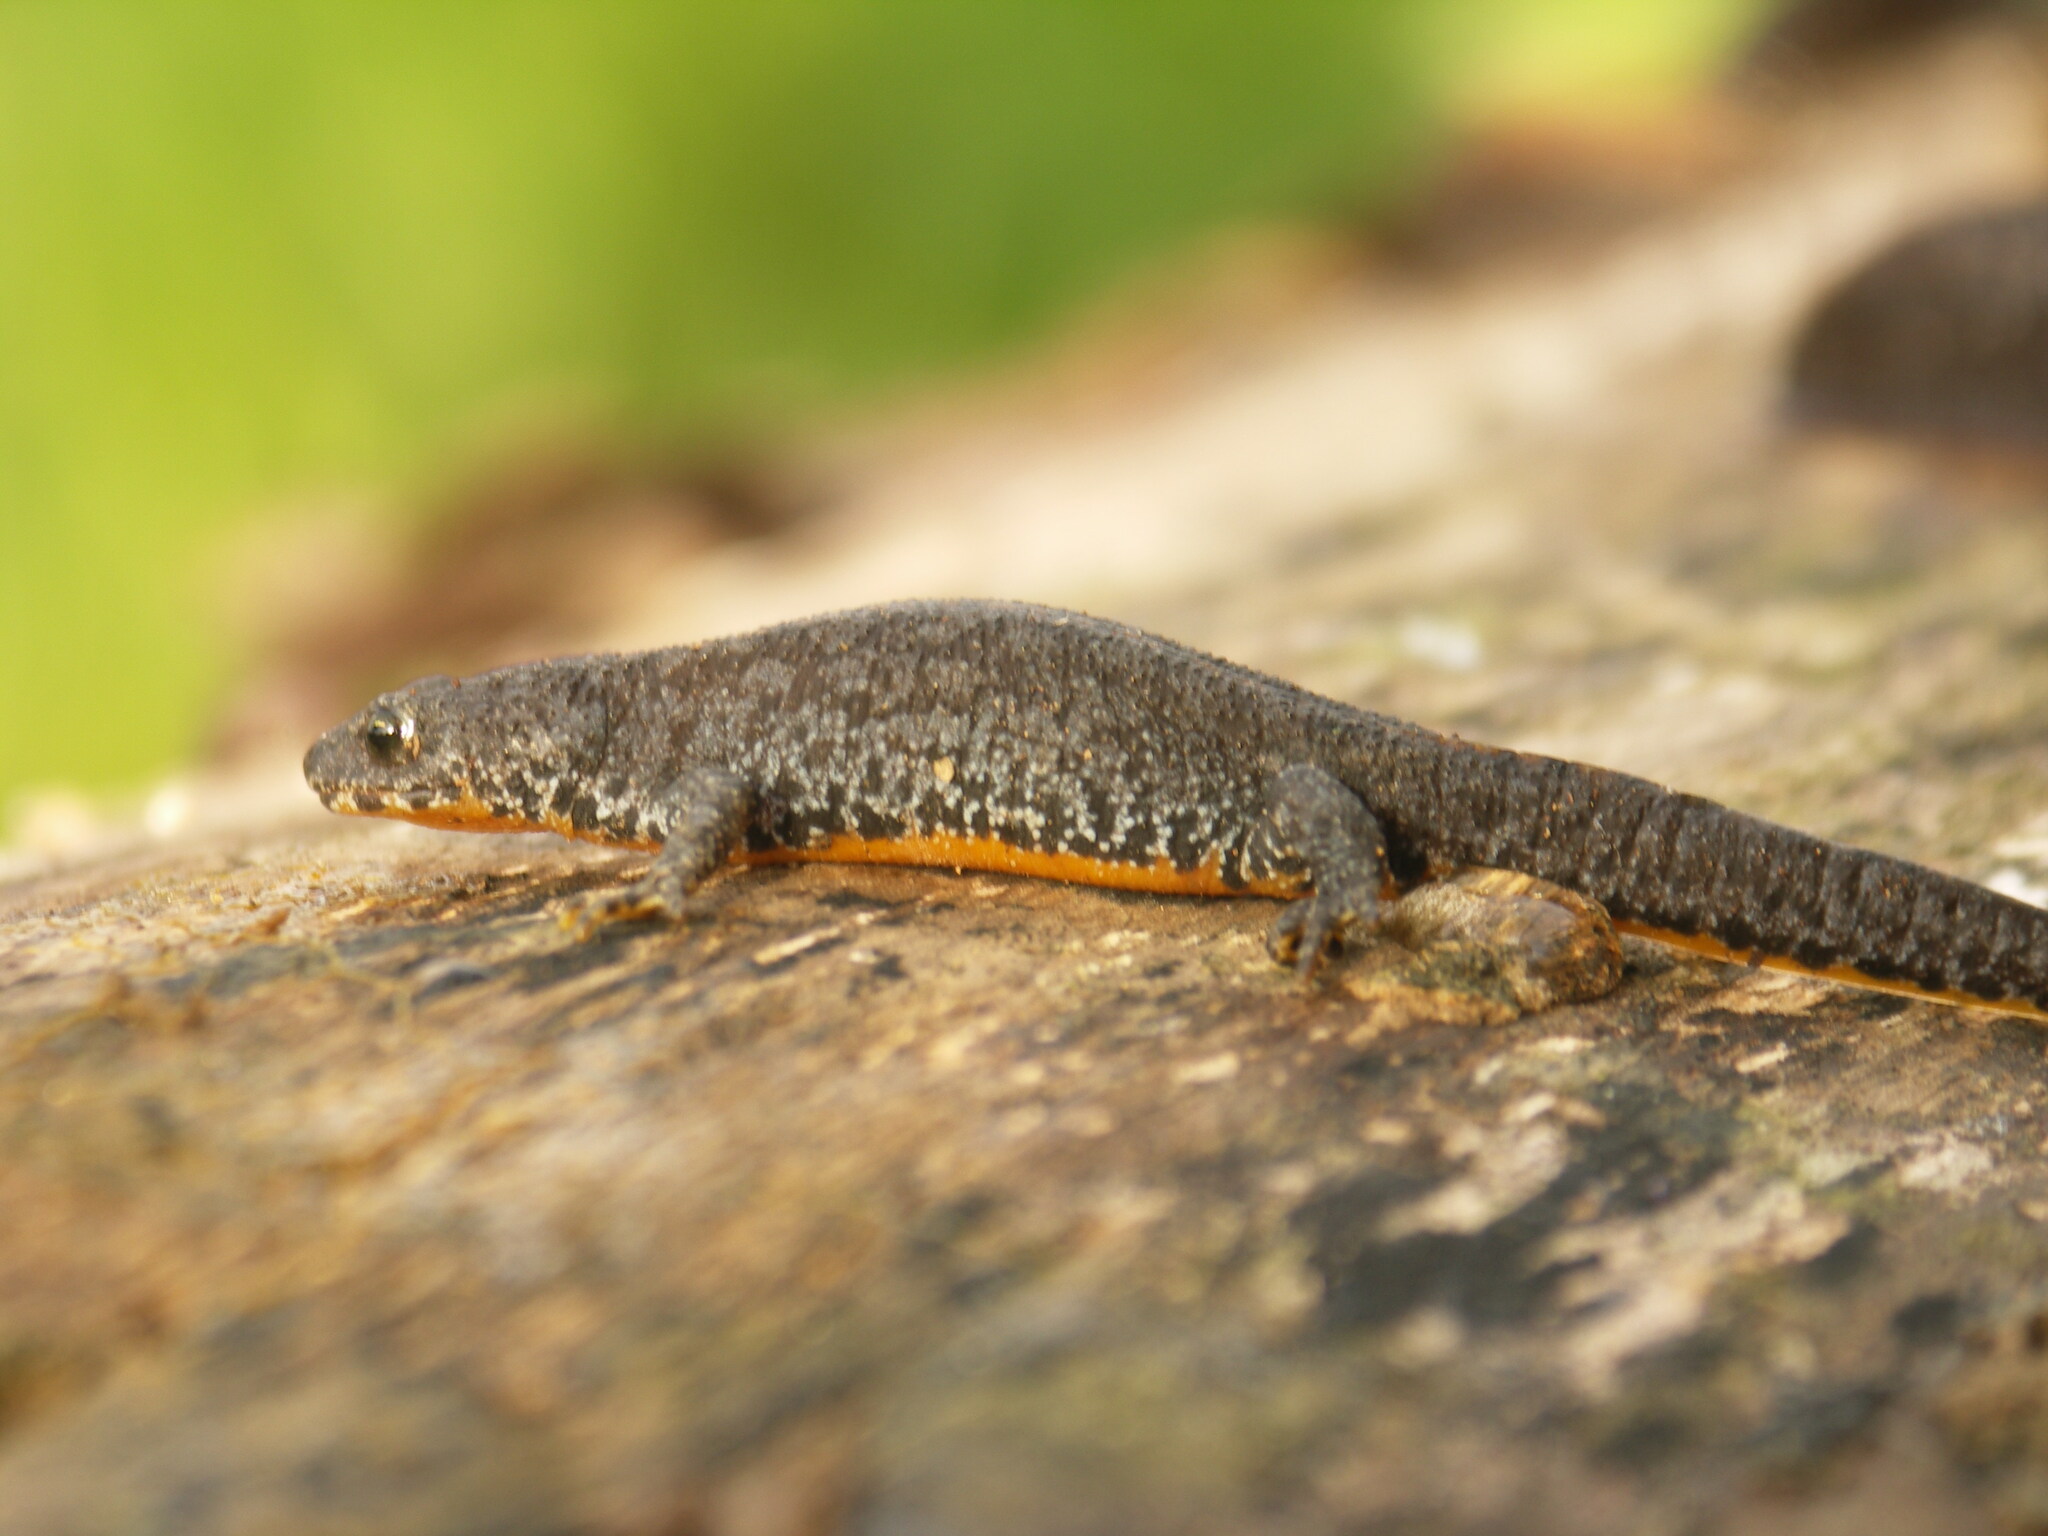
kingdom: Animalia
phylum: Chordata
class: Amphibia
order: Caudata
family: Salamandridae
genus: Ichthyosaura
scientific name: Ichthyosaura alpestris
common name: Alpine newt
